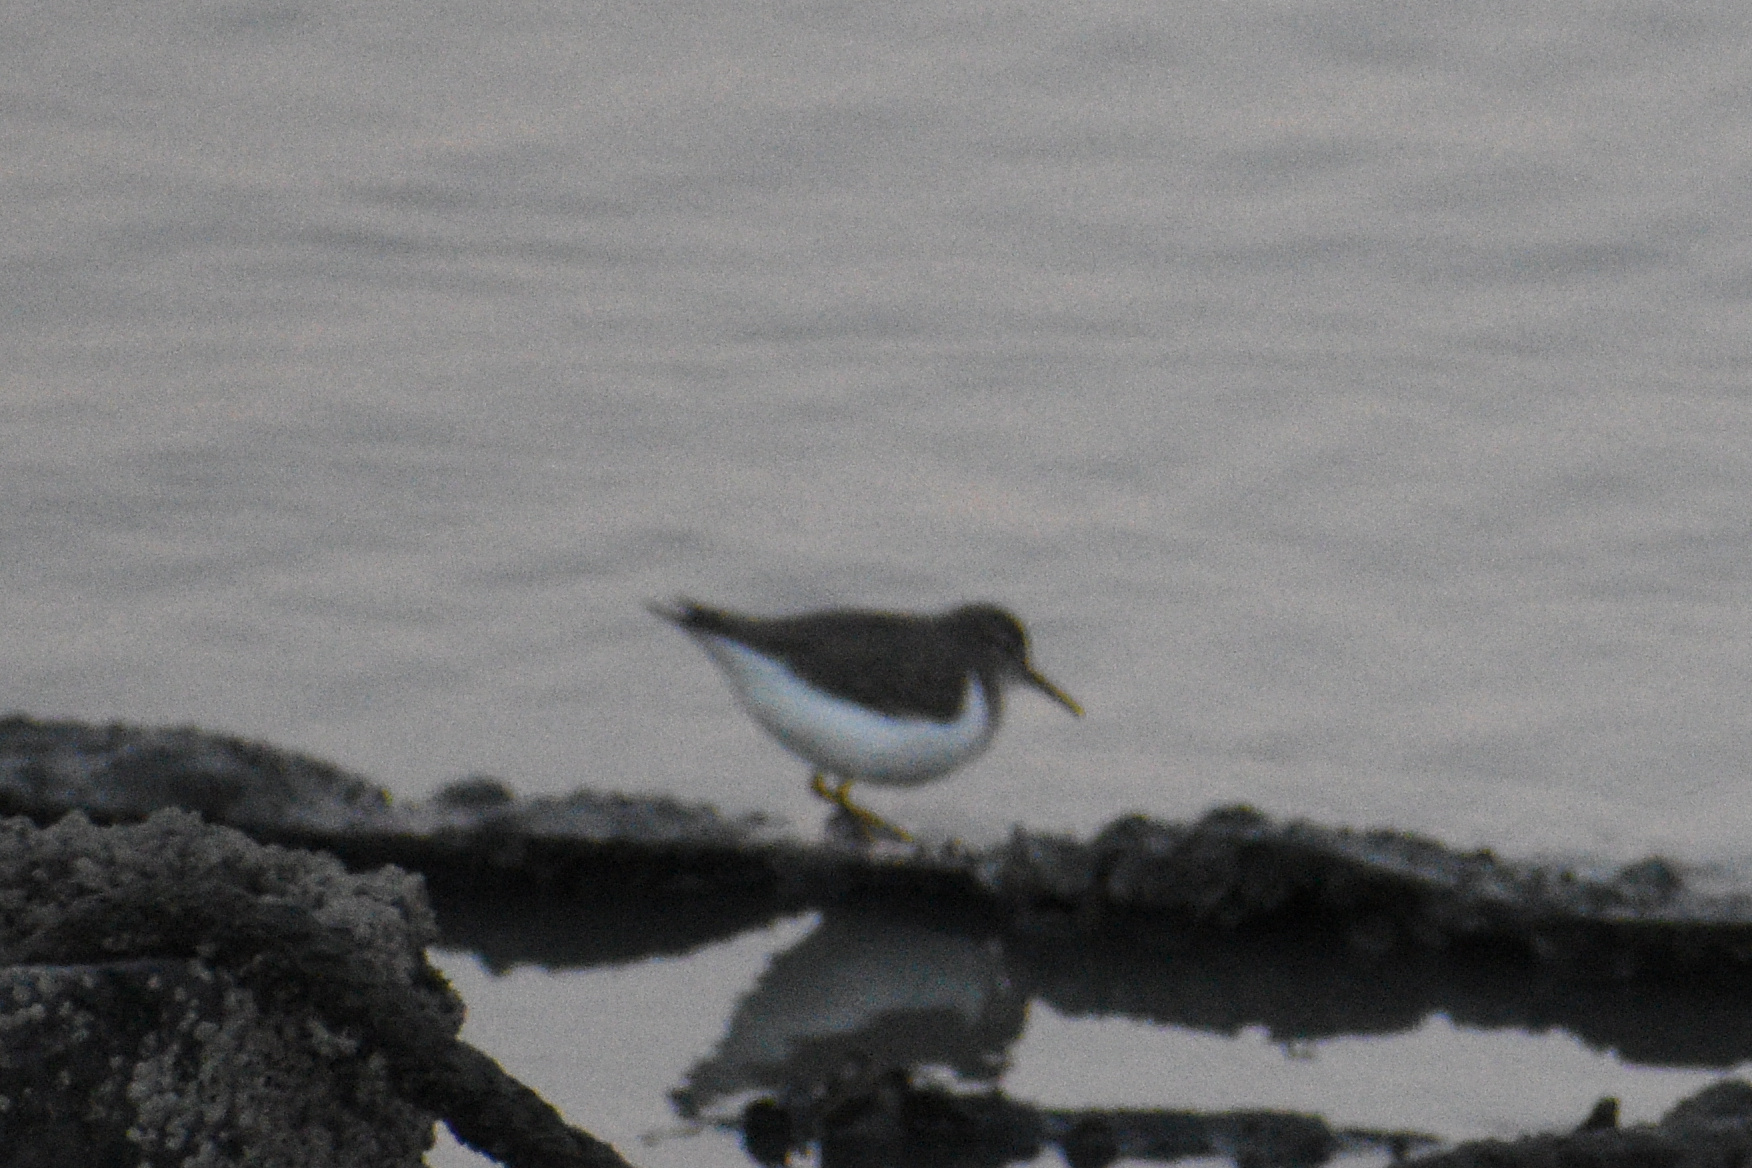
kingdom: Animalia
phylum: Chordata
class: Aves
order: Charadriiformes
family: Scolopacidae
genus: Actitis
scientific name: Actitis macularius
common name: Spotted sandpiper
